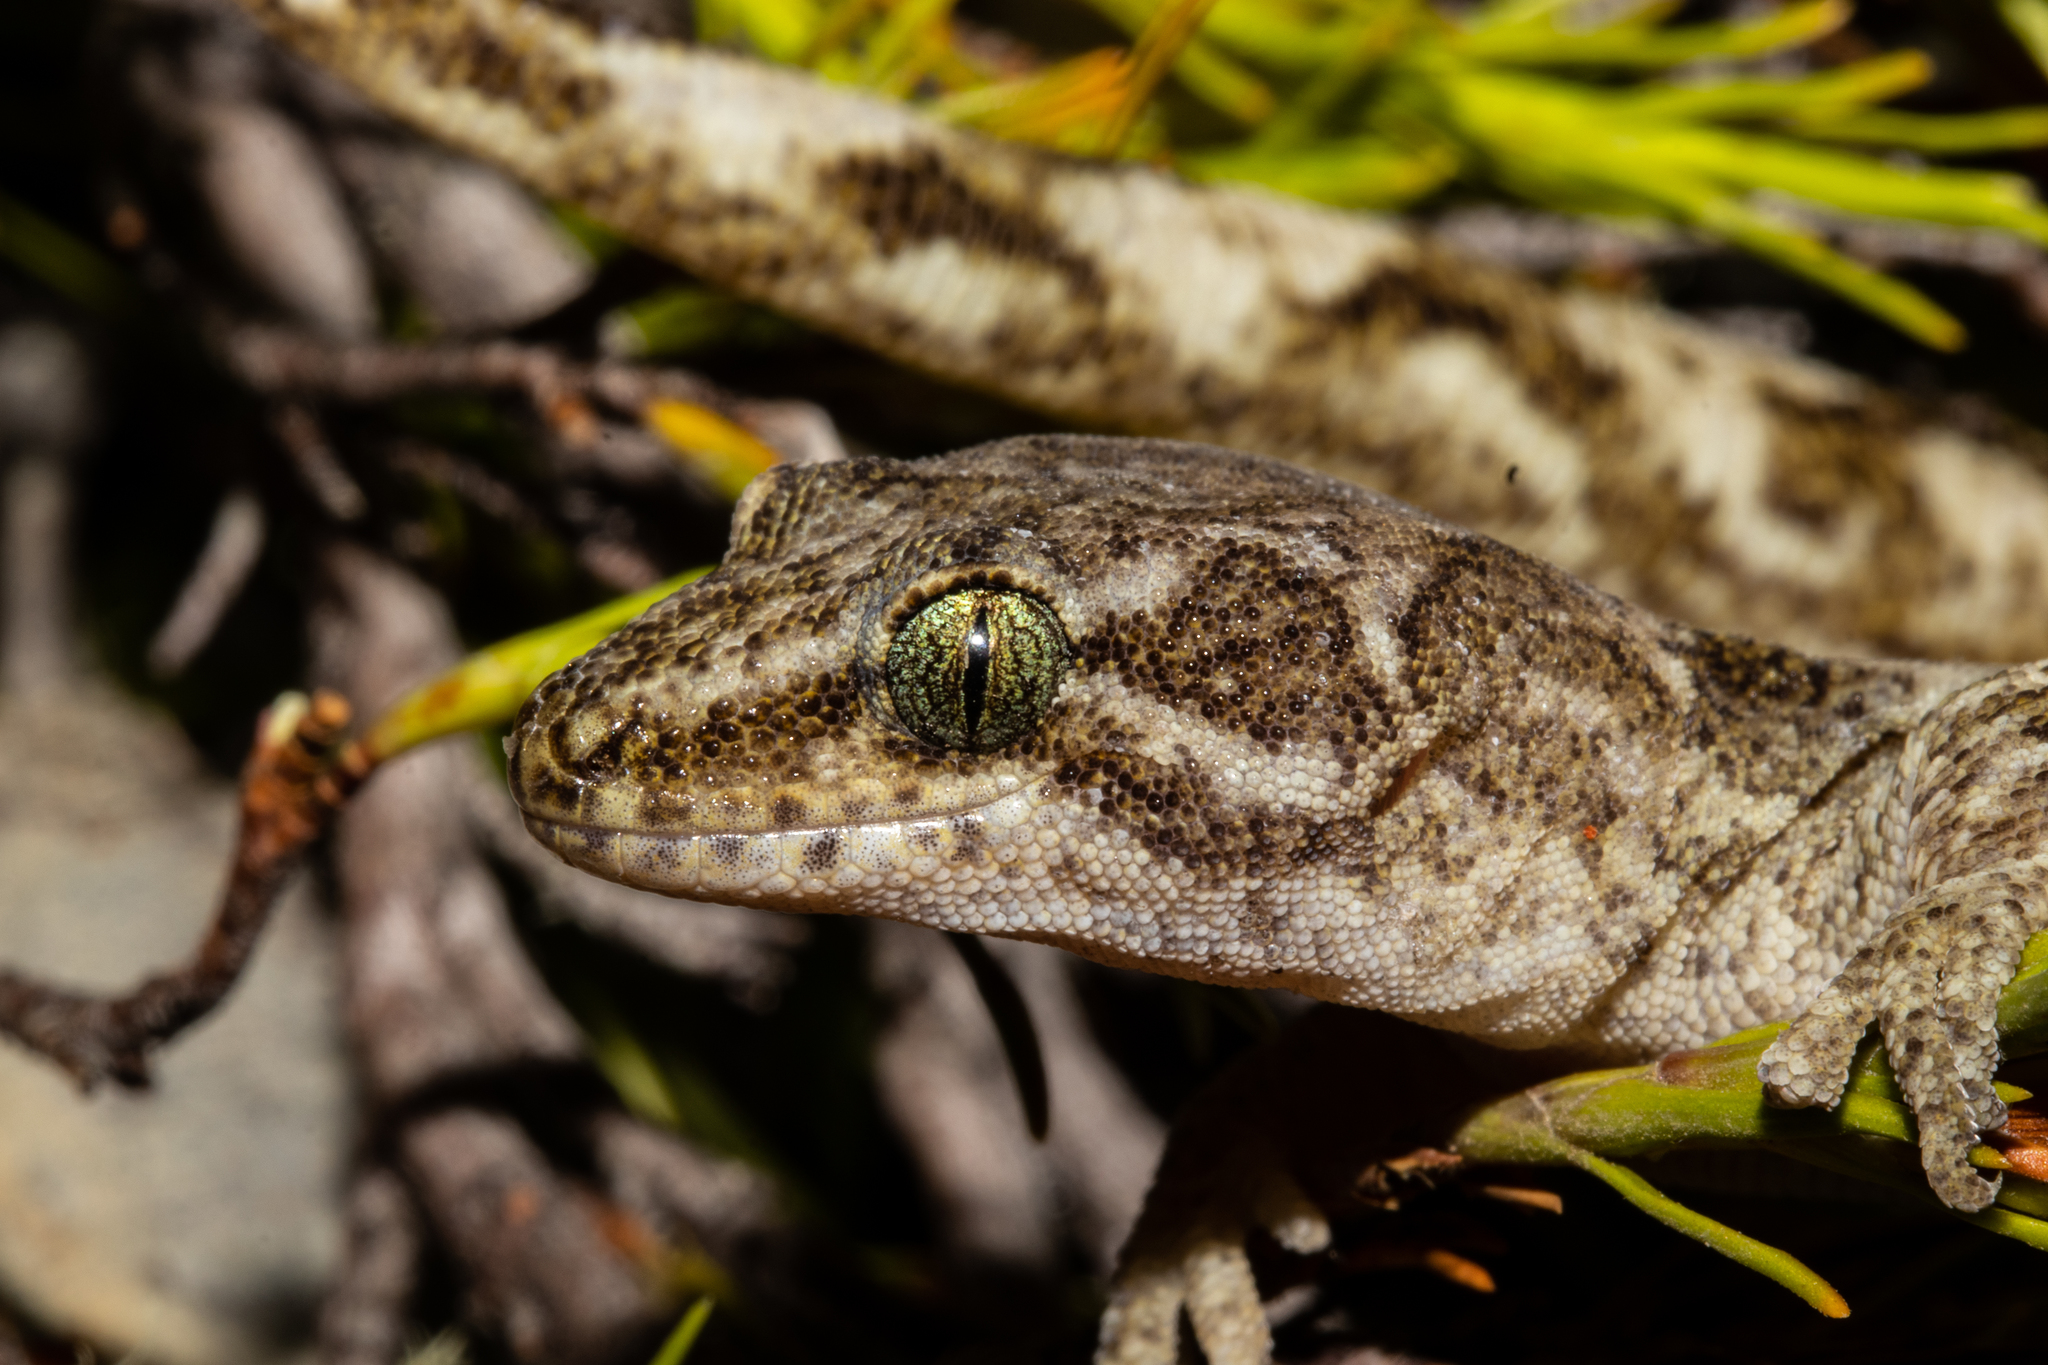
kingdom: Animalia
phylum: Chordata
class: Squamata
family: Diplodactylidae
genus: Woodworthia
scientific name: Woodworthia
